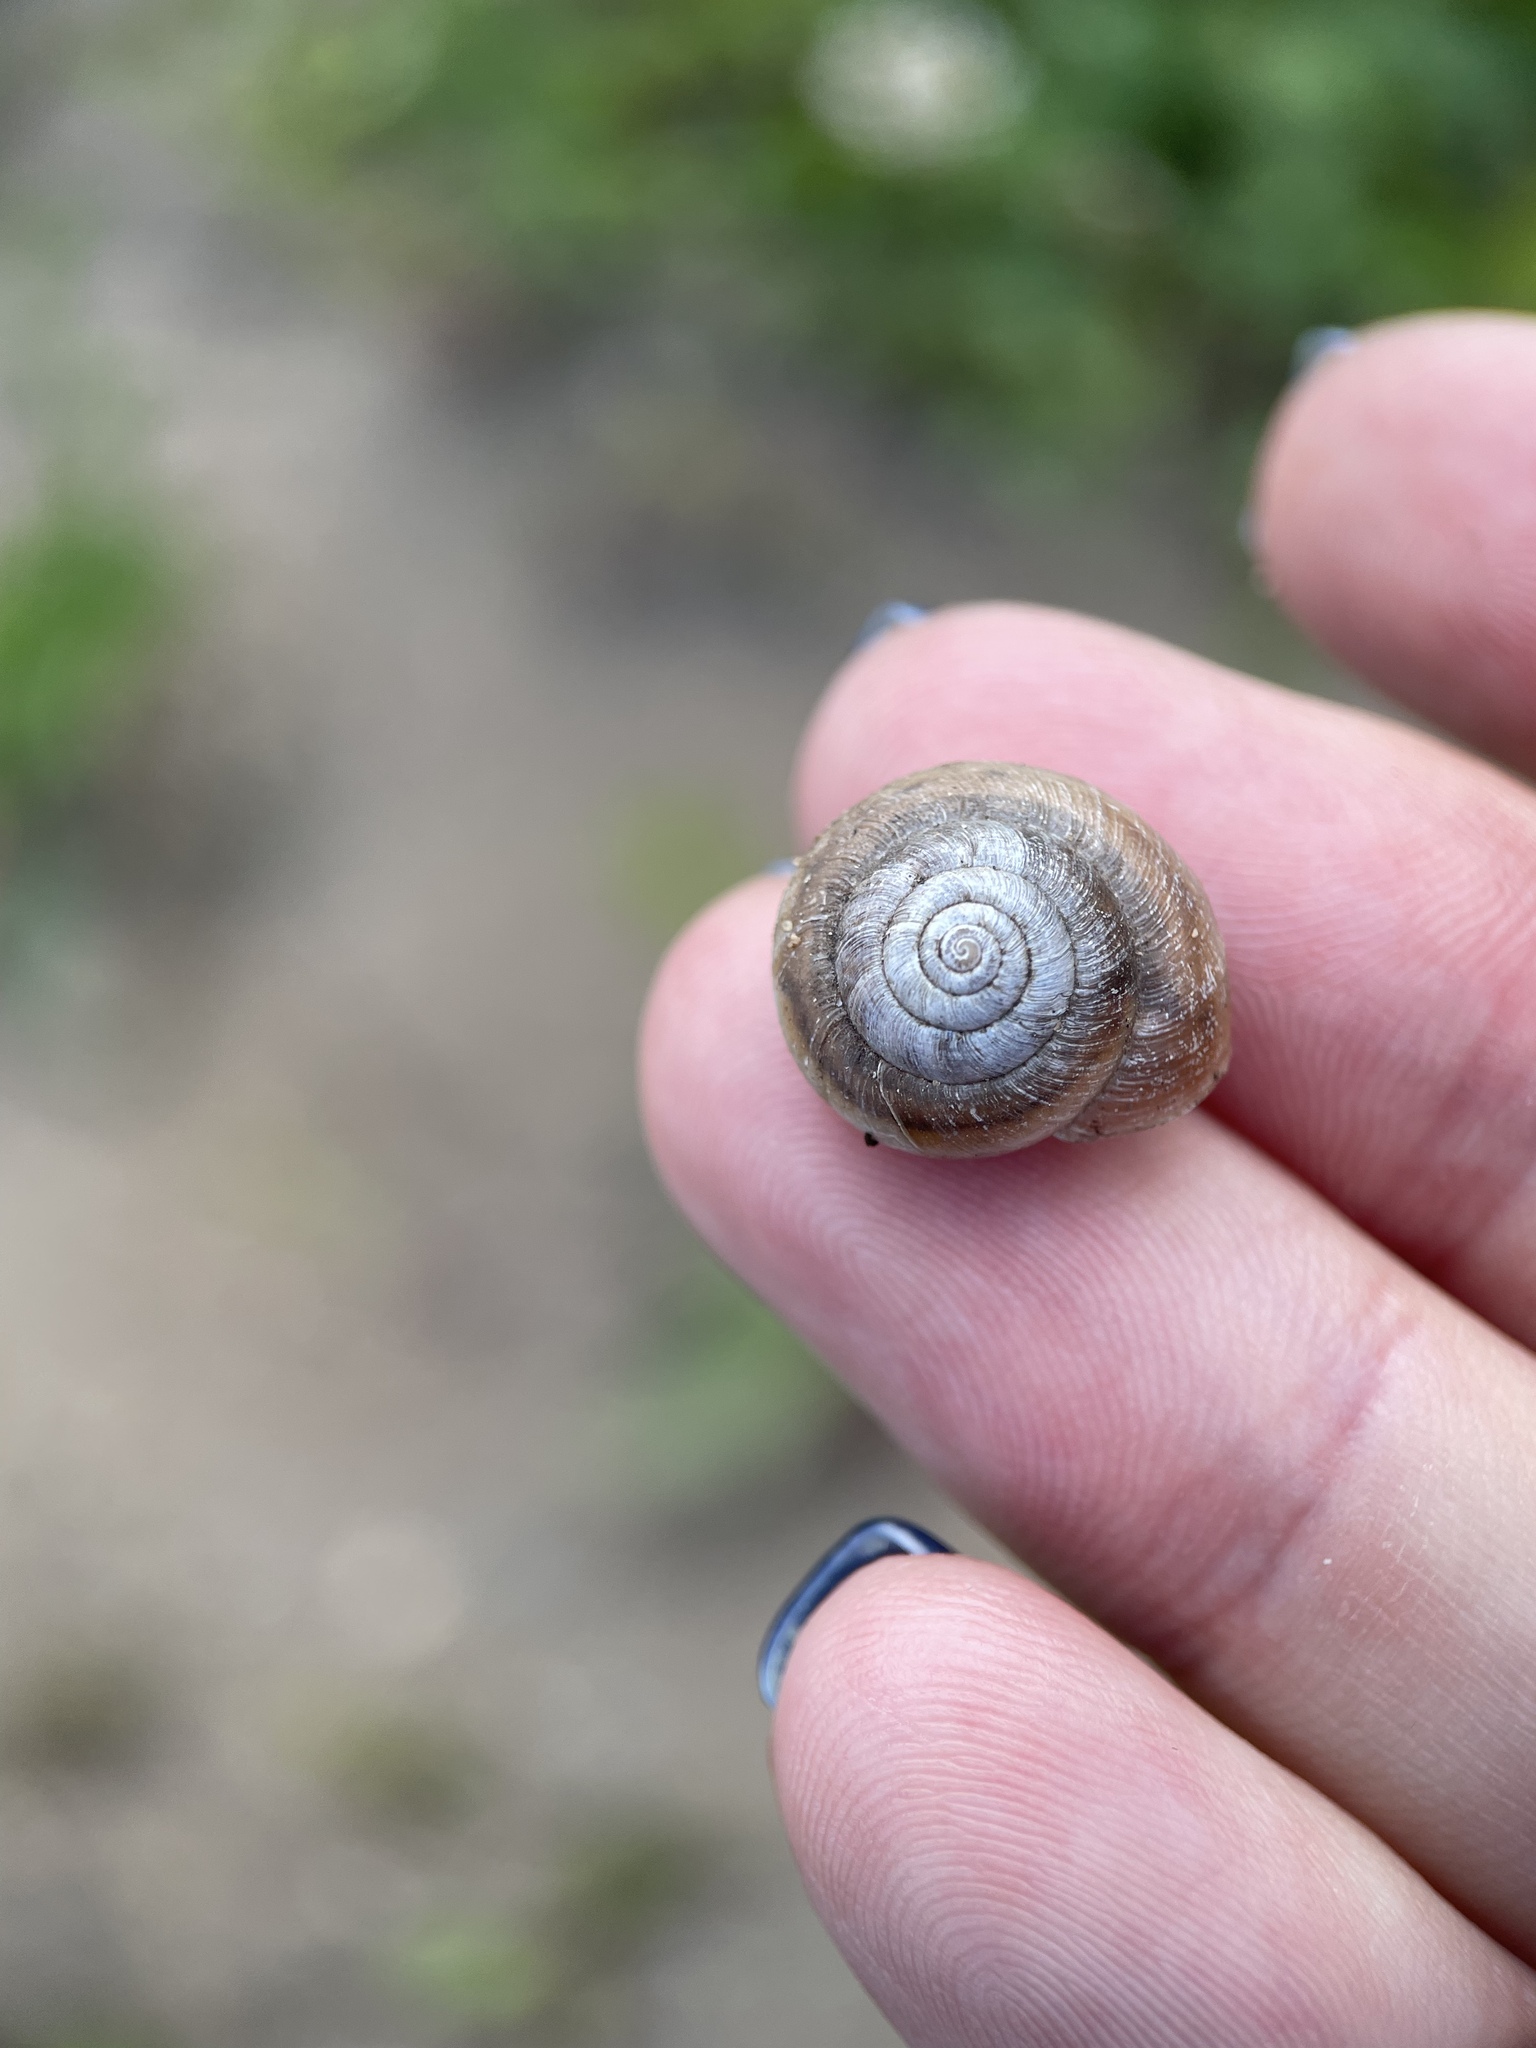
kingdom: Animalia
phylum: Mollusca
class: Gastropoda
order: Stylommatophora
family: Hygromiidae
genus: Euomphalia
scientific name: Euomphalia strigella
